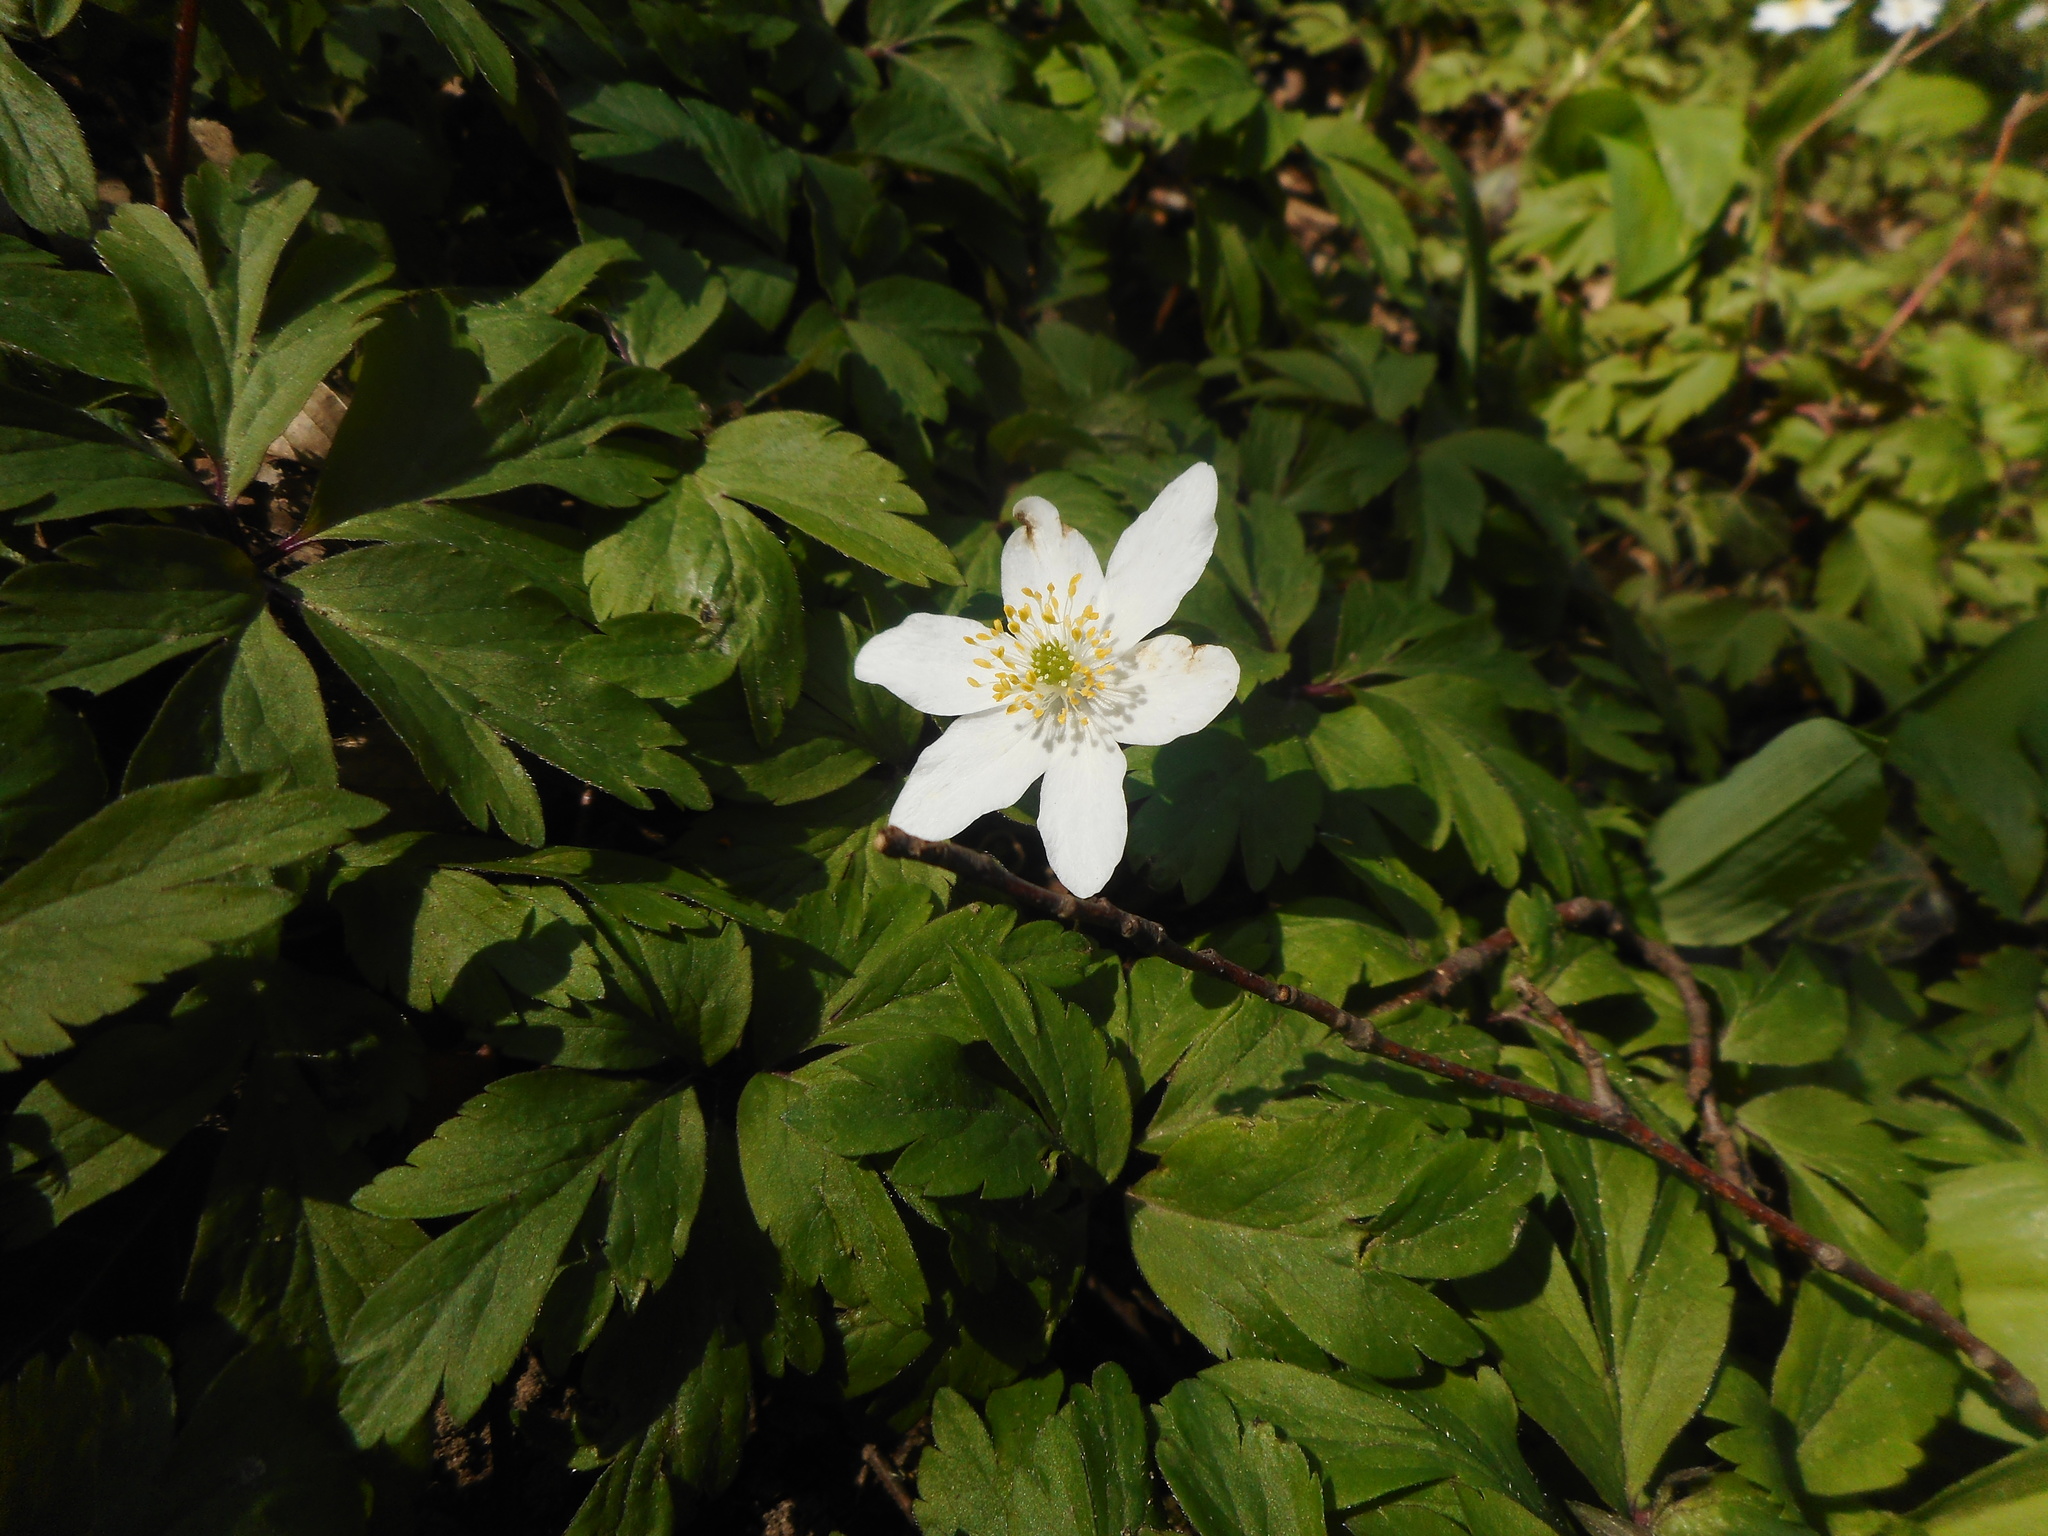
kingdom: Plantae
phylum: Tracheophyta
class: Magnoliopsida
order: Ranunculales
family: Ranunculaceae
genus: Anemone
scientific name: Anemone nemorosa
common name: Wood anemone
